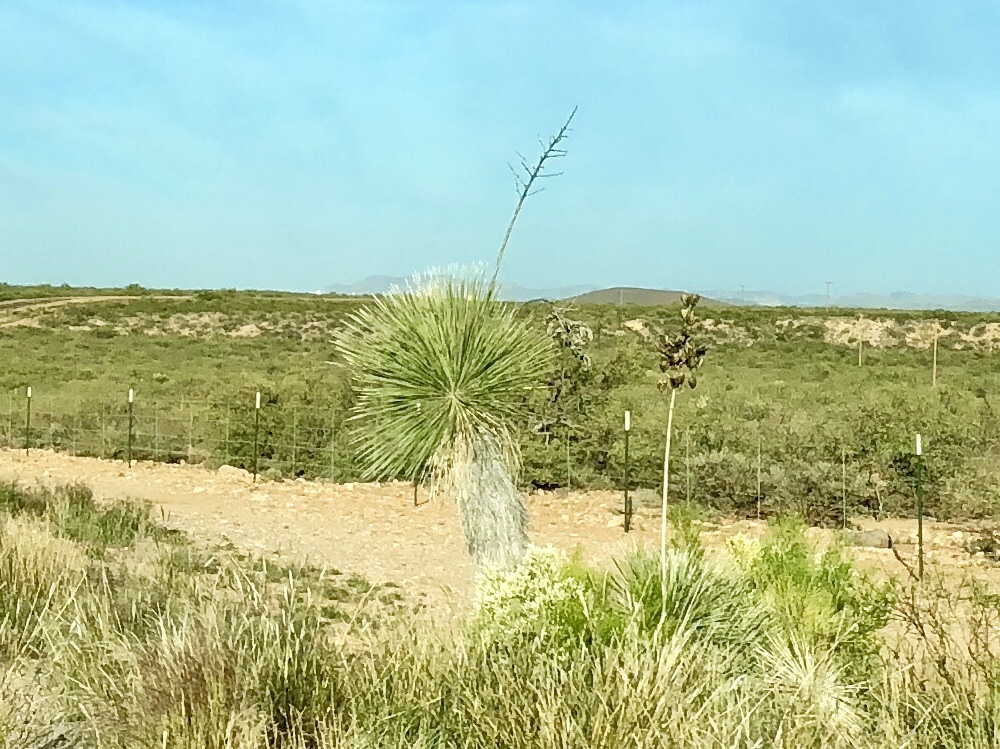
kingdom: Plantae
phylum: Tracheophyta
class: Liliopsida
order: Asparagales
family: Asparagaceae
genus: Yucca
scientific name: Yucca elata
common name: Palmella
